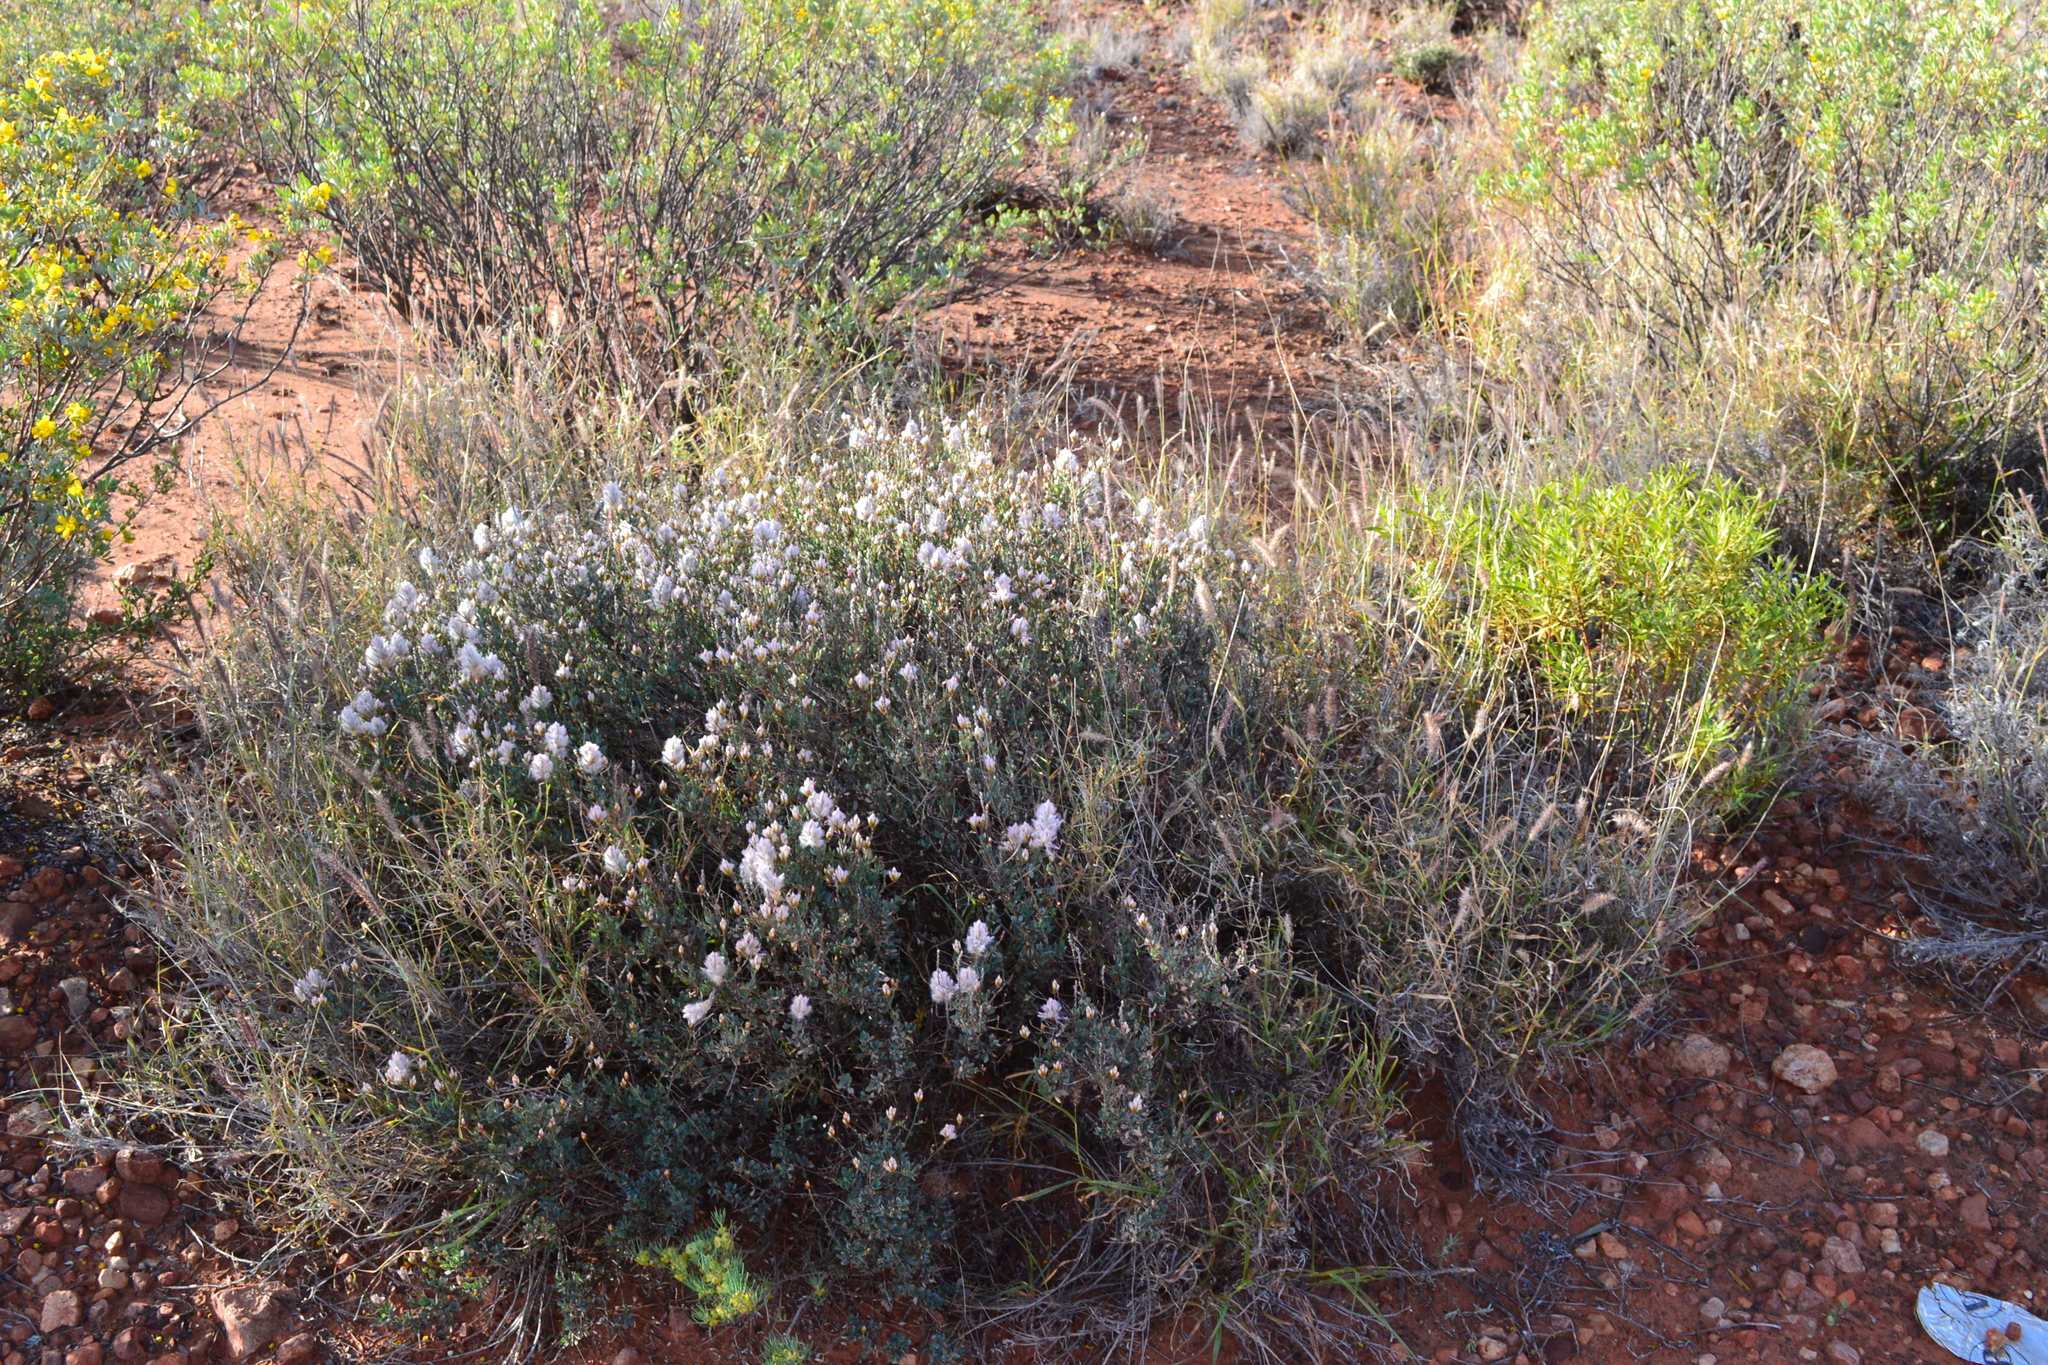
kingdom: Plantae
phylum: Tracheophyta
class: Magnoliopsida
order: Caryophyllales
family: Amaranthaceae
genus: Ptilotus
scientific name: Ptilotus whitei
